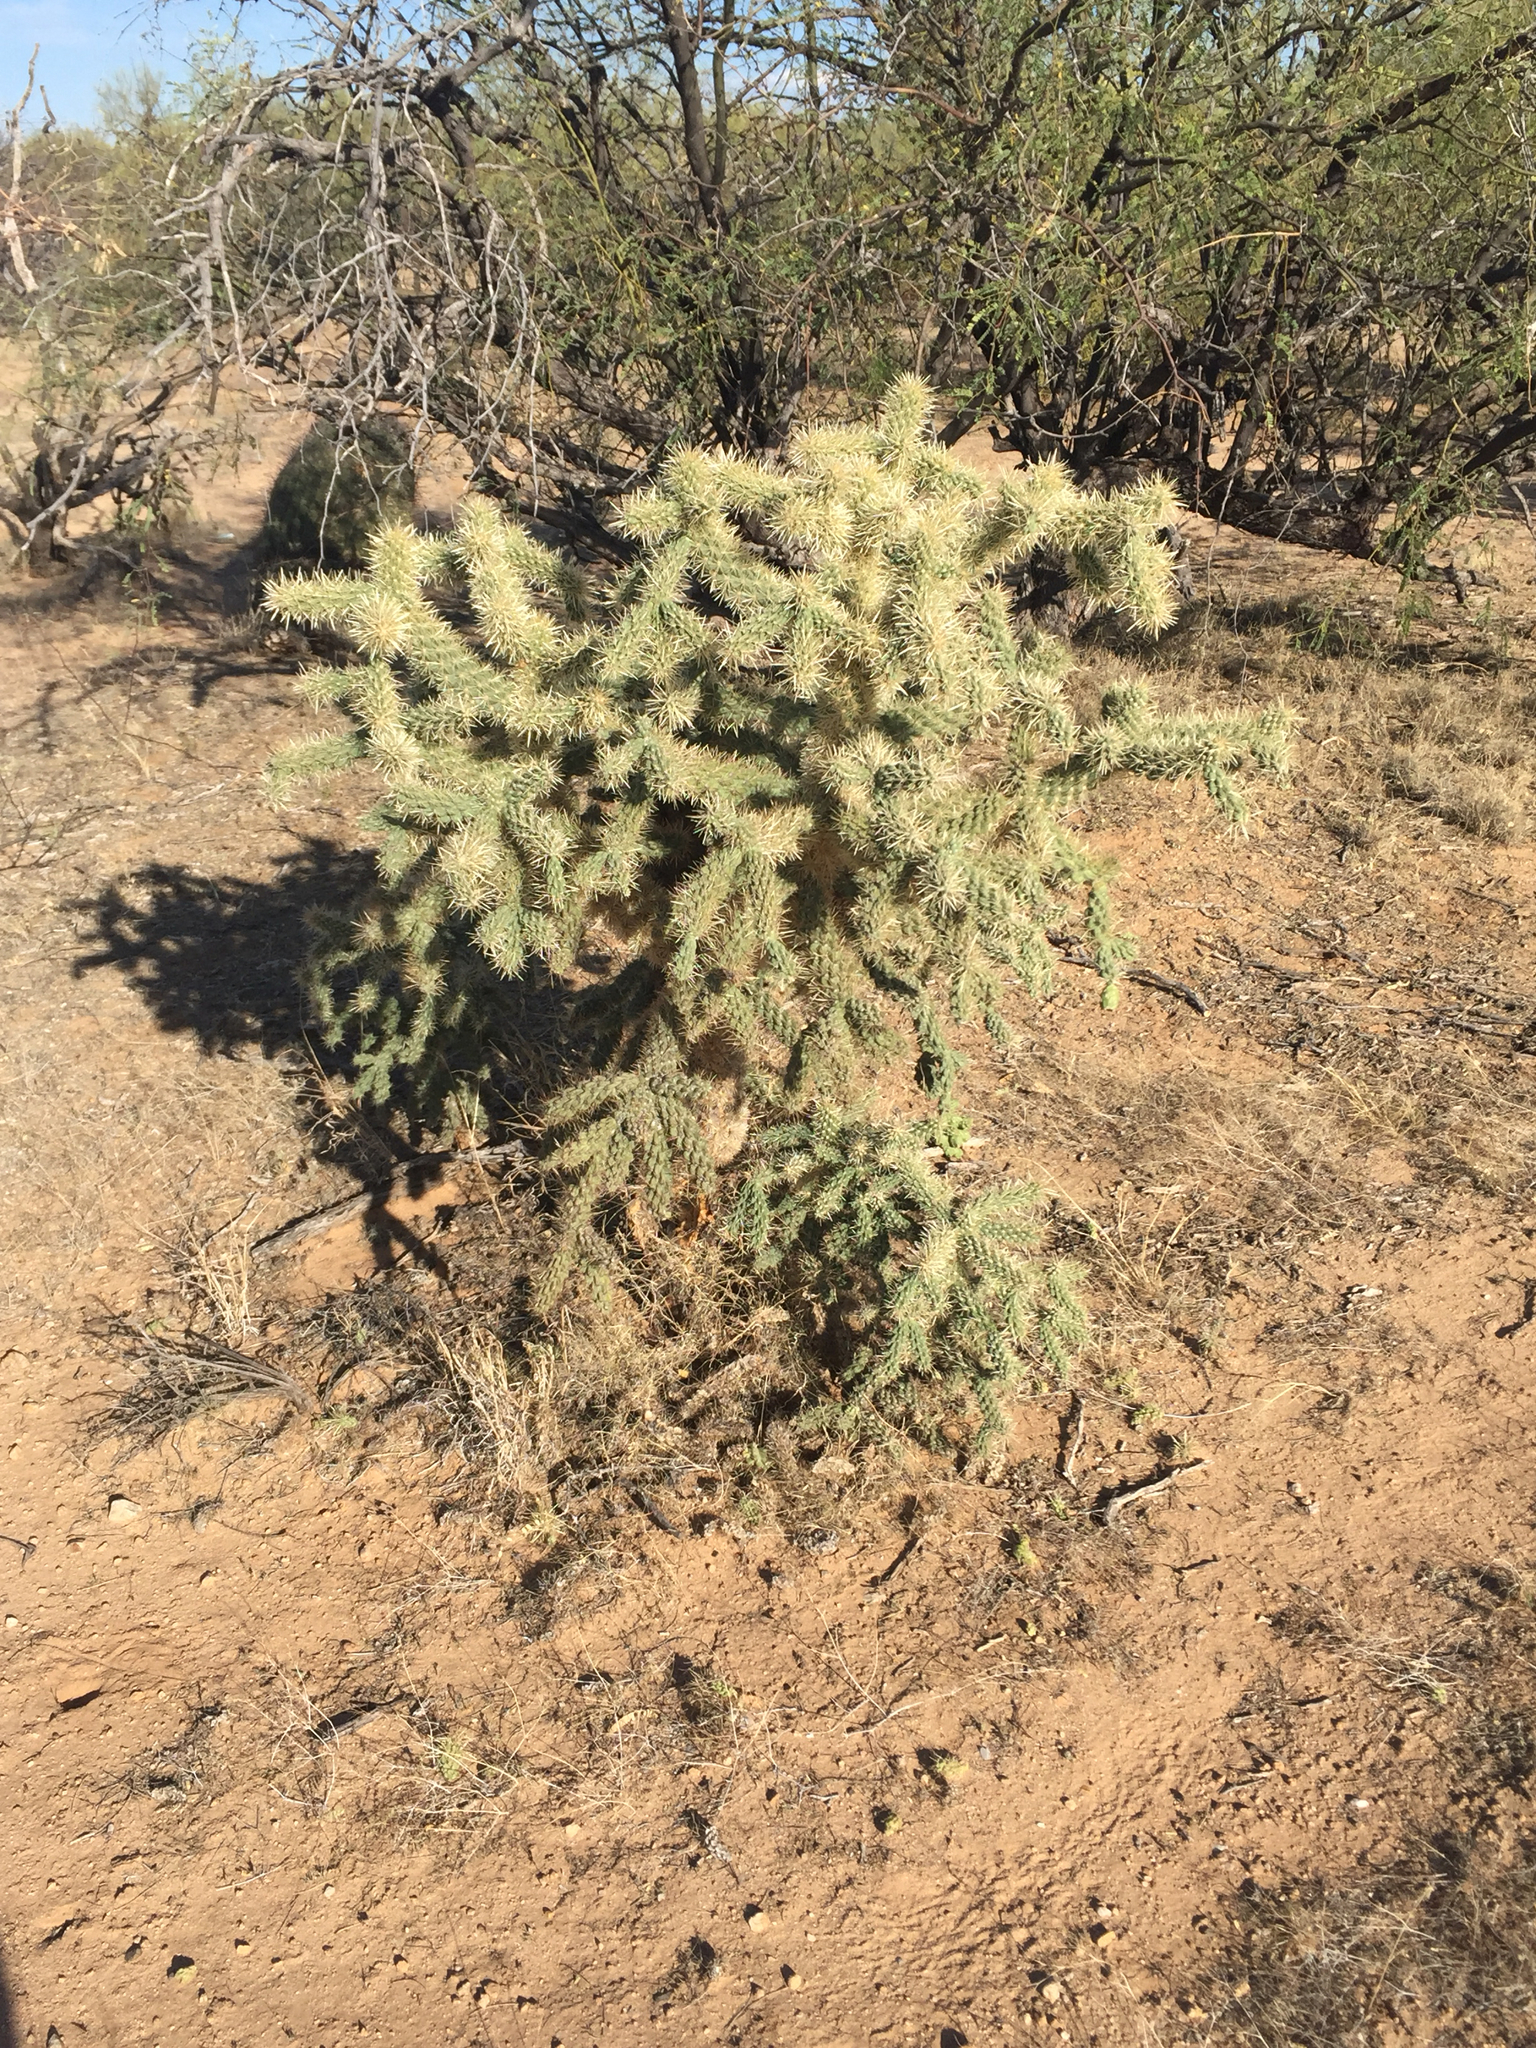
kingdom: Plantae
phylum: Tracheophyta
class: Magnoliopsida
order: Caryophyllales
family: Cactaceae
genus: Cylindropuntia
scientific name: Cylindropuntia fulgida
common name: Jumping cholla
